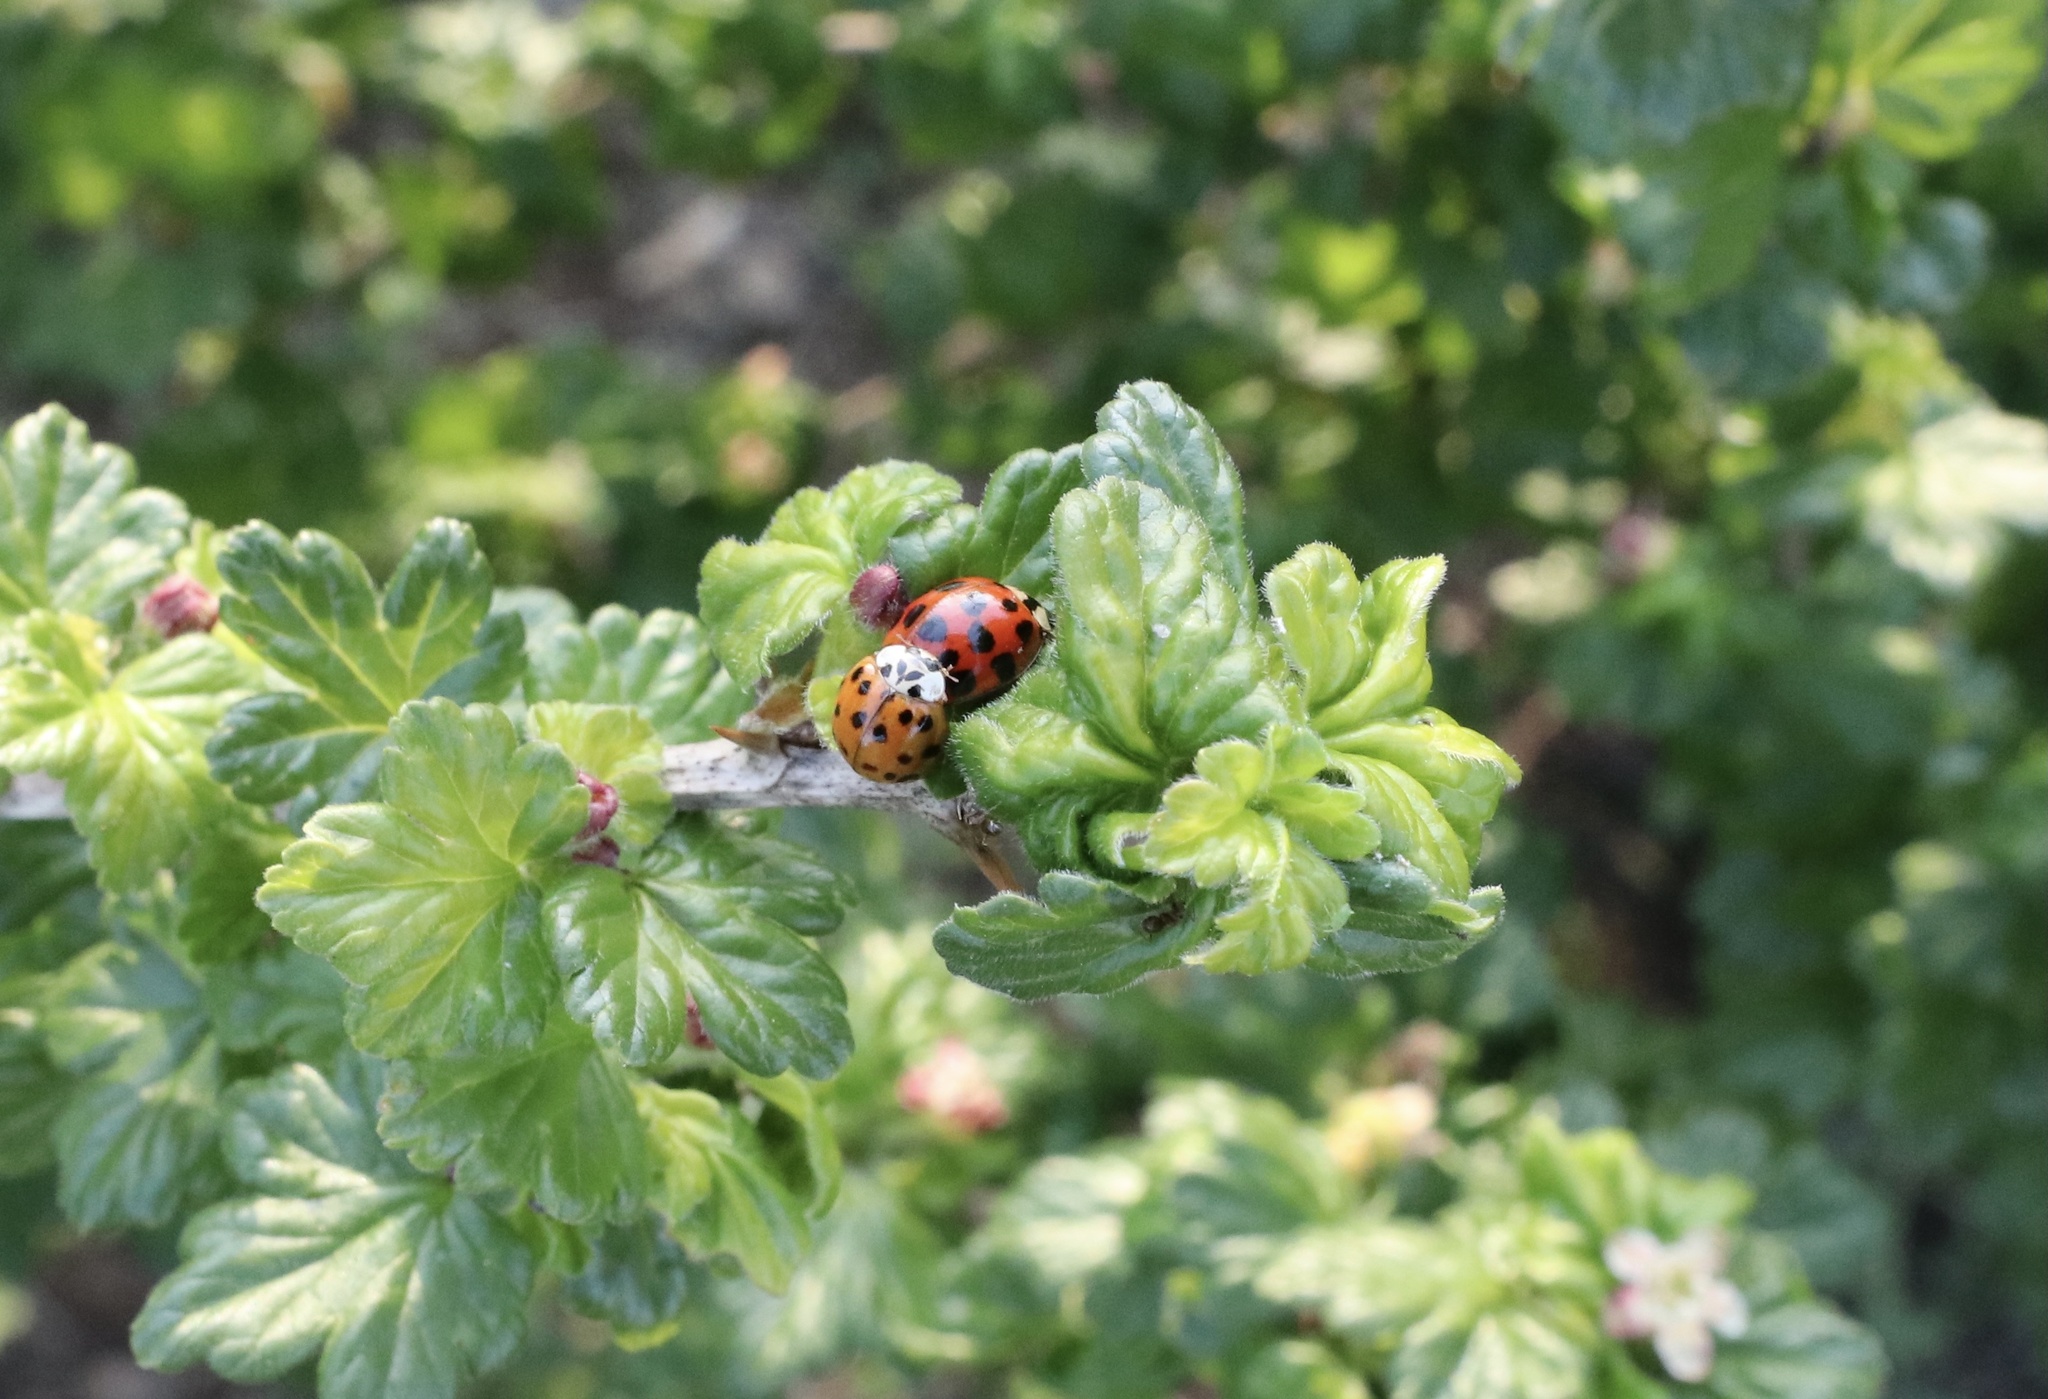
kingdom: Animalia
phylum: Arthropoda
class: Insecta
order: Coleoptera
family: Coccinellidae
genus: Harmonia
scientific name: Harmonia axyridis
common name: Harlequin ladybird
